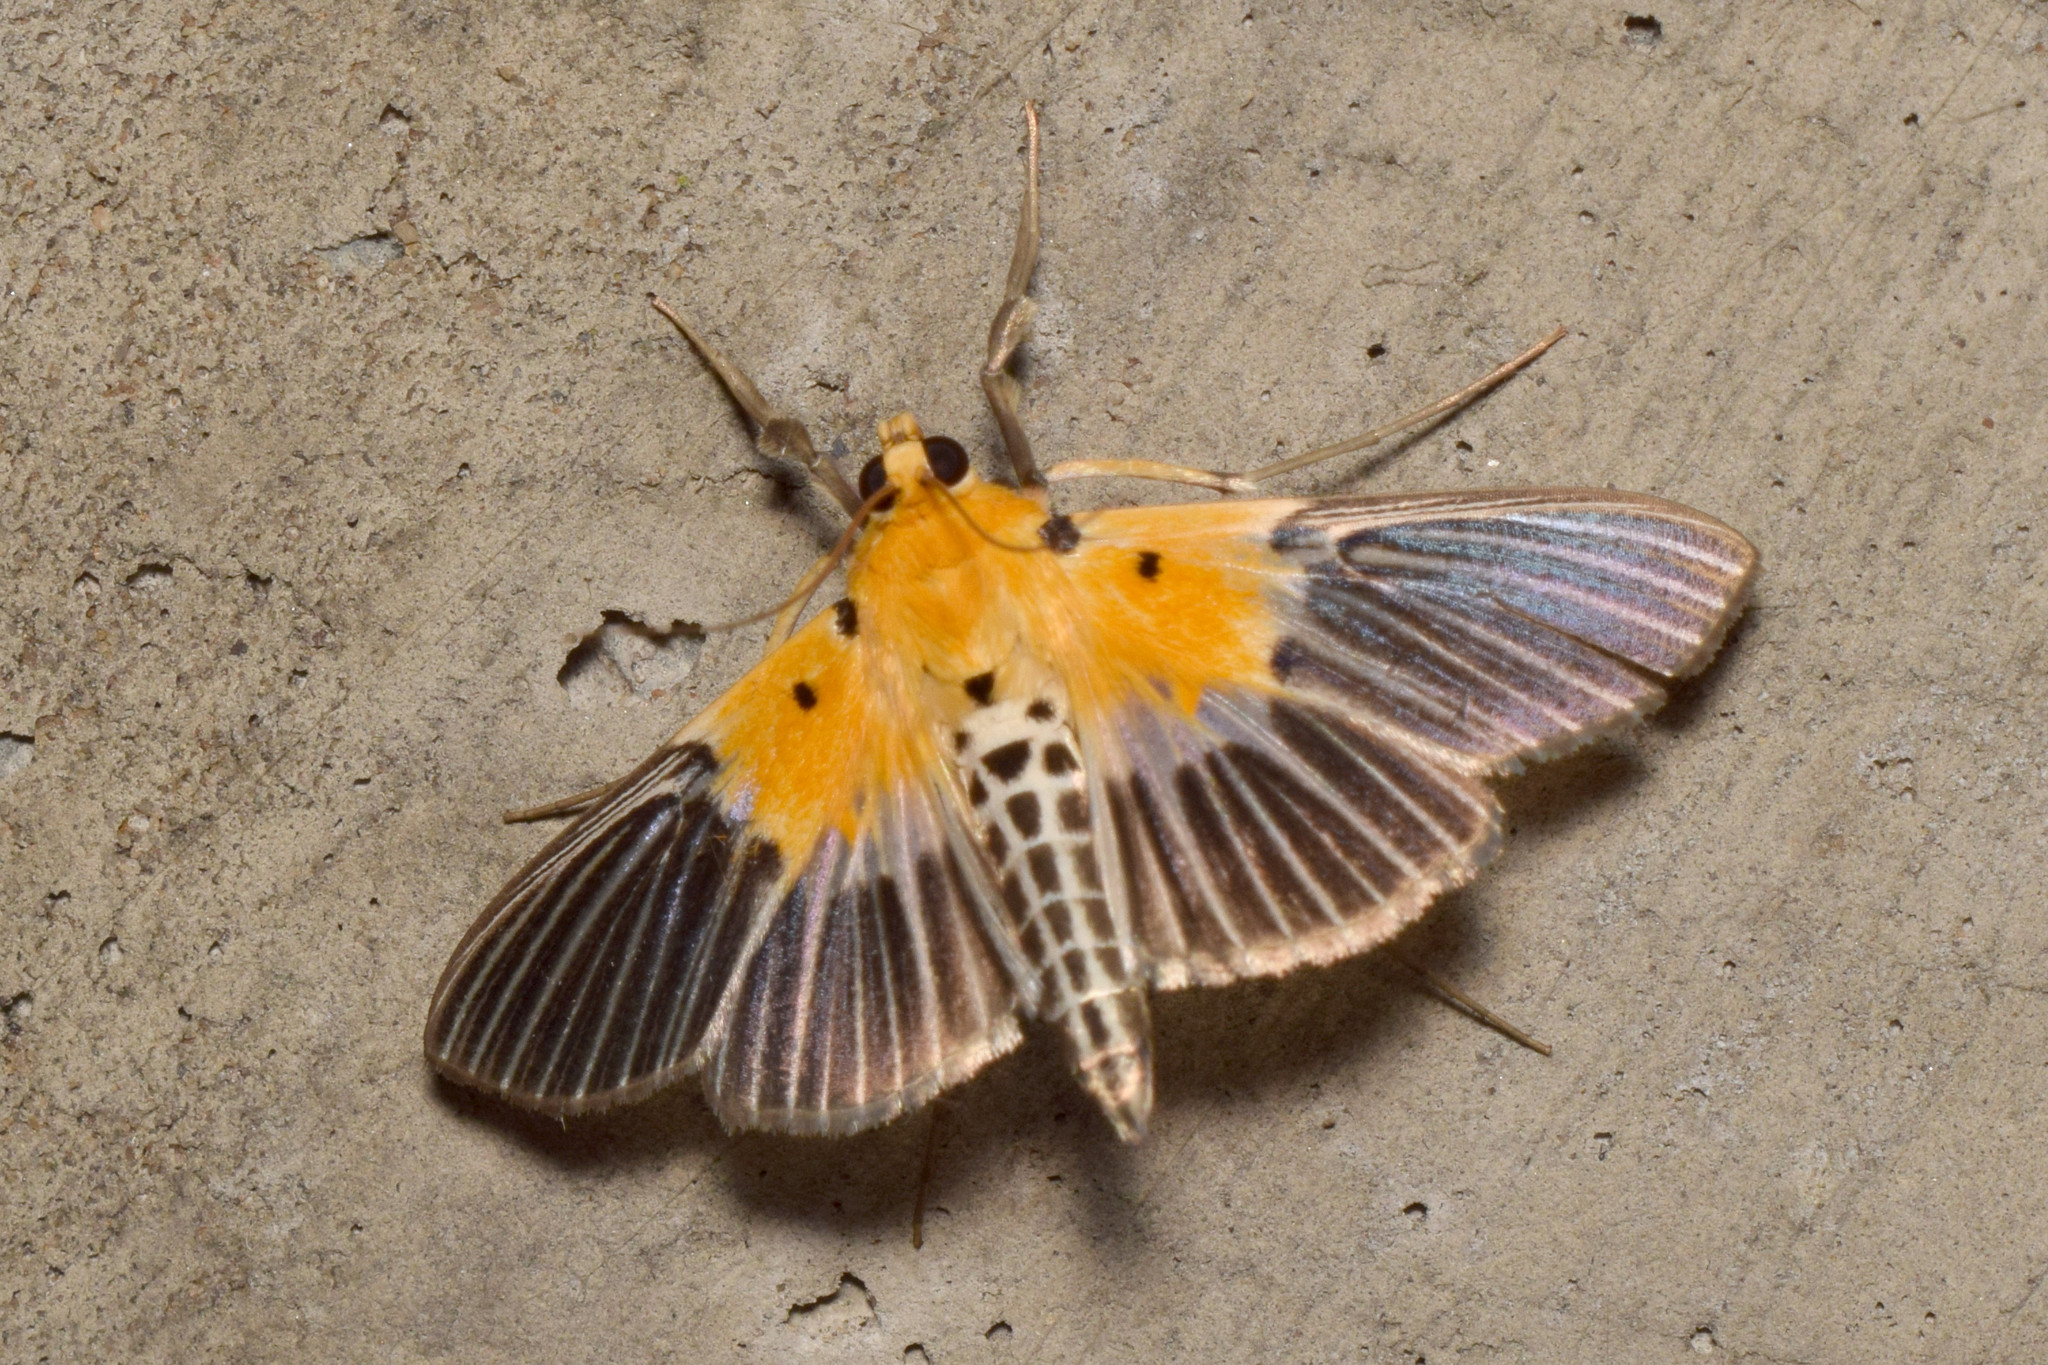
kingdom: Animalia
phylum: Arthropoda
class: Insecta
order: Lepidoptera
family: Crambidae
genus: Nevrina
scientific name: Nevrina procopia
